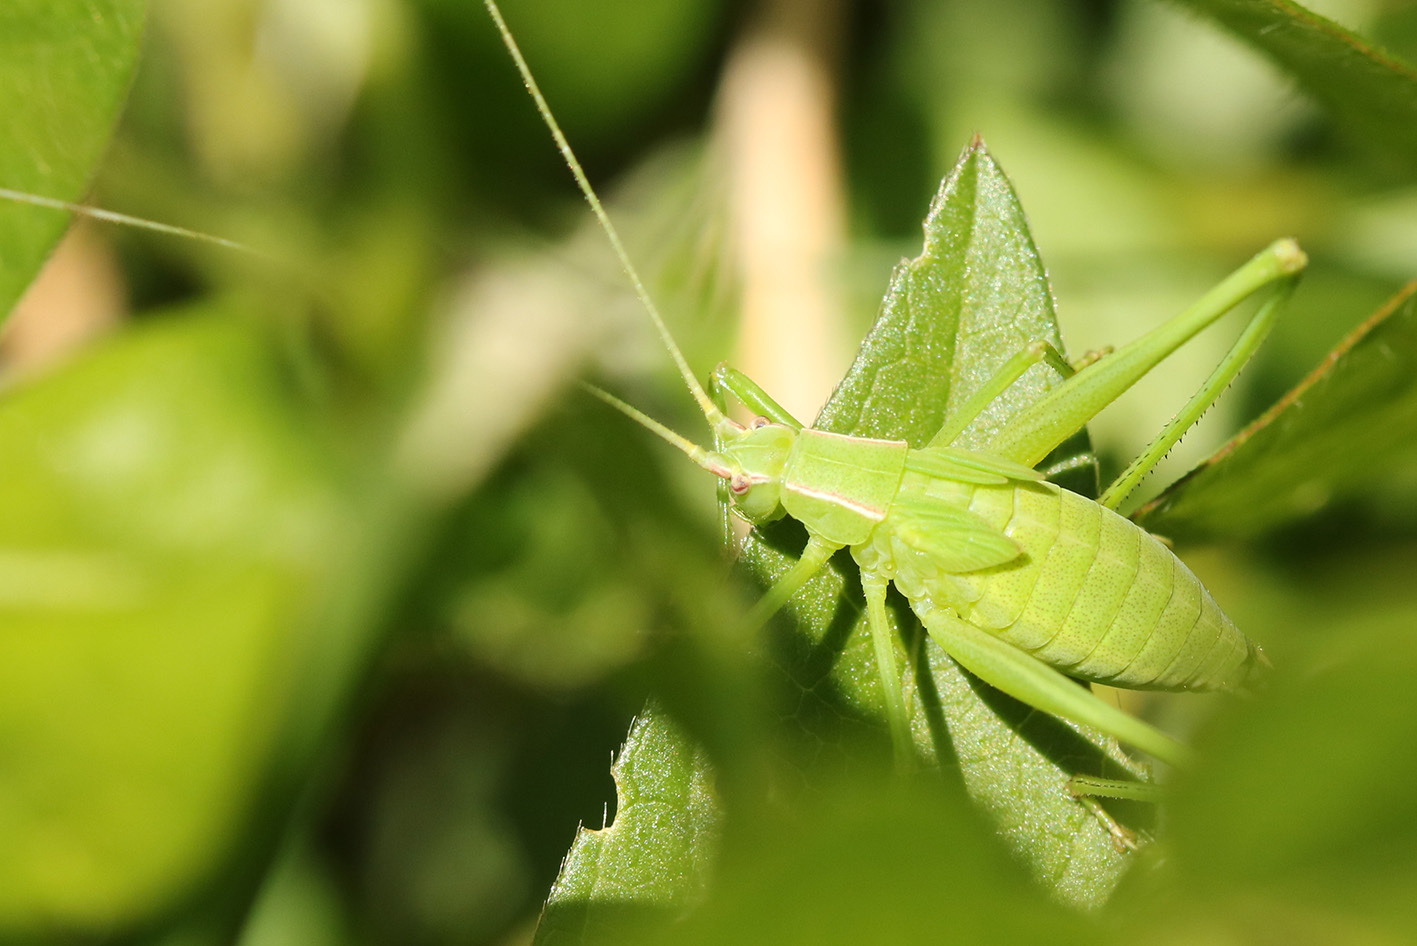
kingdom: Animalia
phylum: Arthropoda
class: Insecta
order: Orthoptera
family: Tettigoniidae
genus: Hyperophora
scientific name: Hyperophora major
